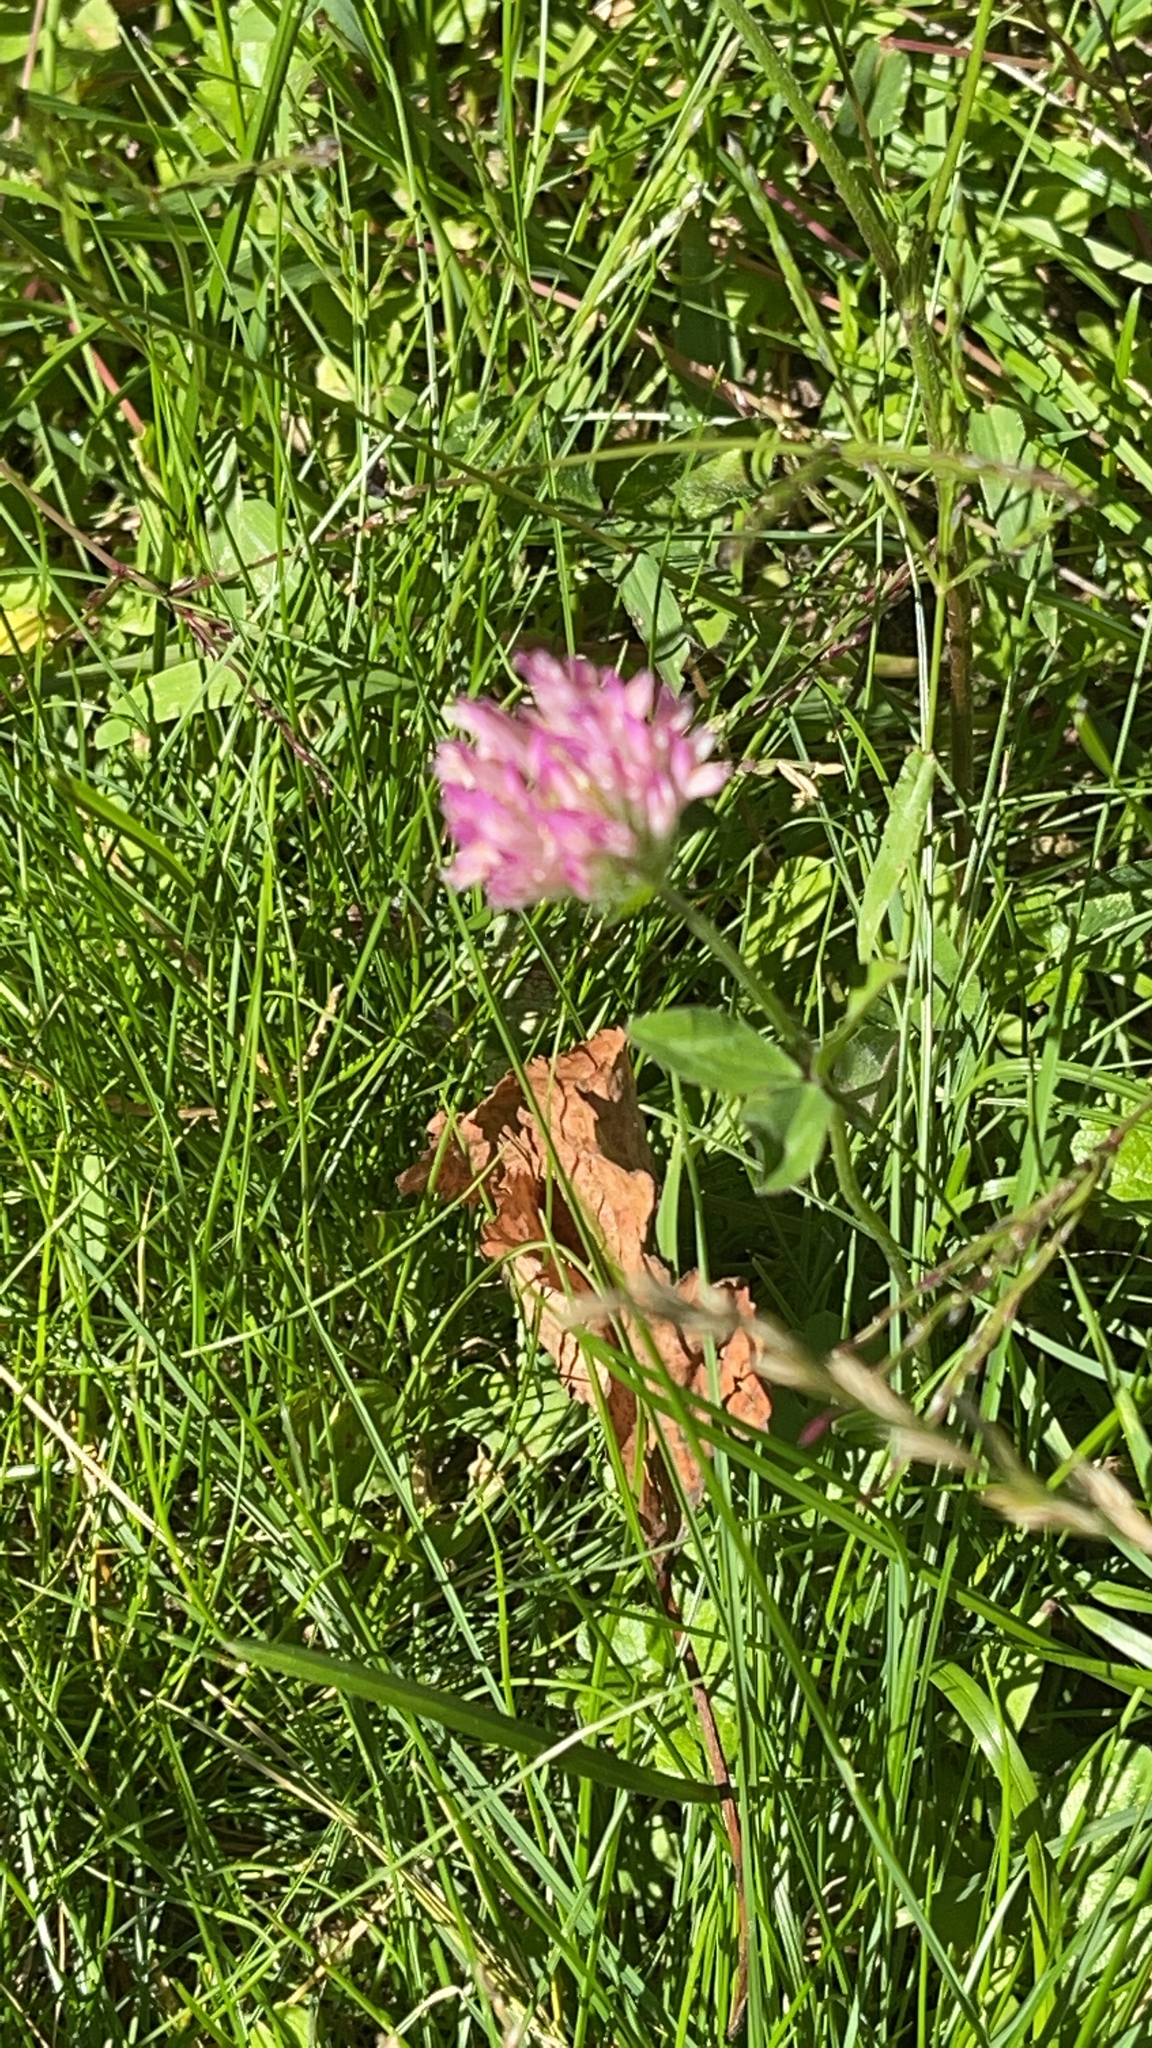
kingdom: Plantae
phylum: Tracheophyta
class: Magnoliopsida
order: Fabales
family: Fabaceae
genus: Trifolium
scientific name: Trifolium pratense
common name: Red clover
